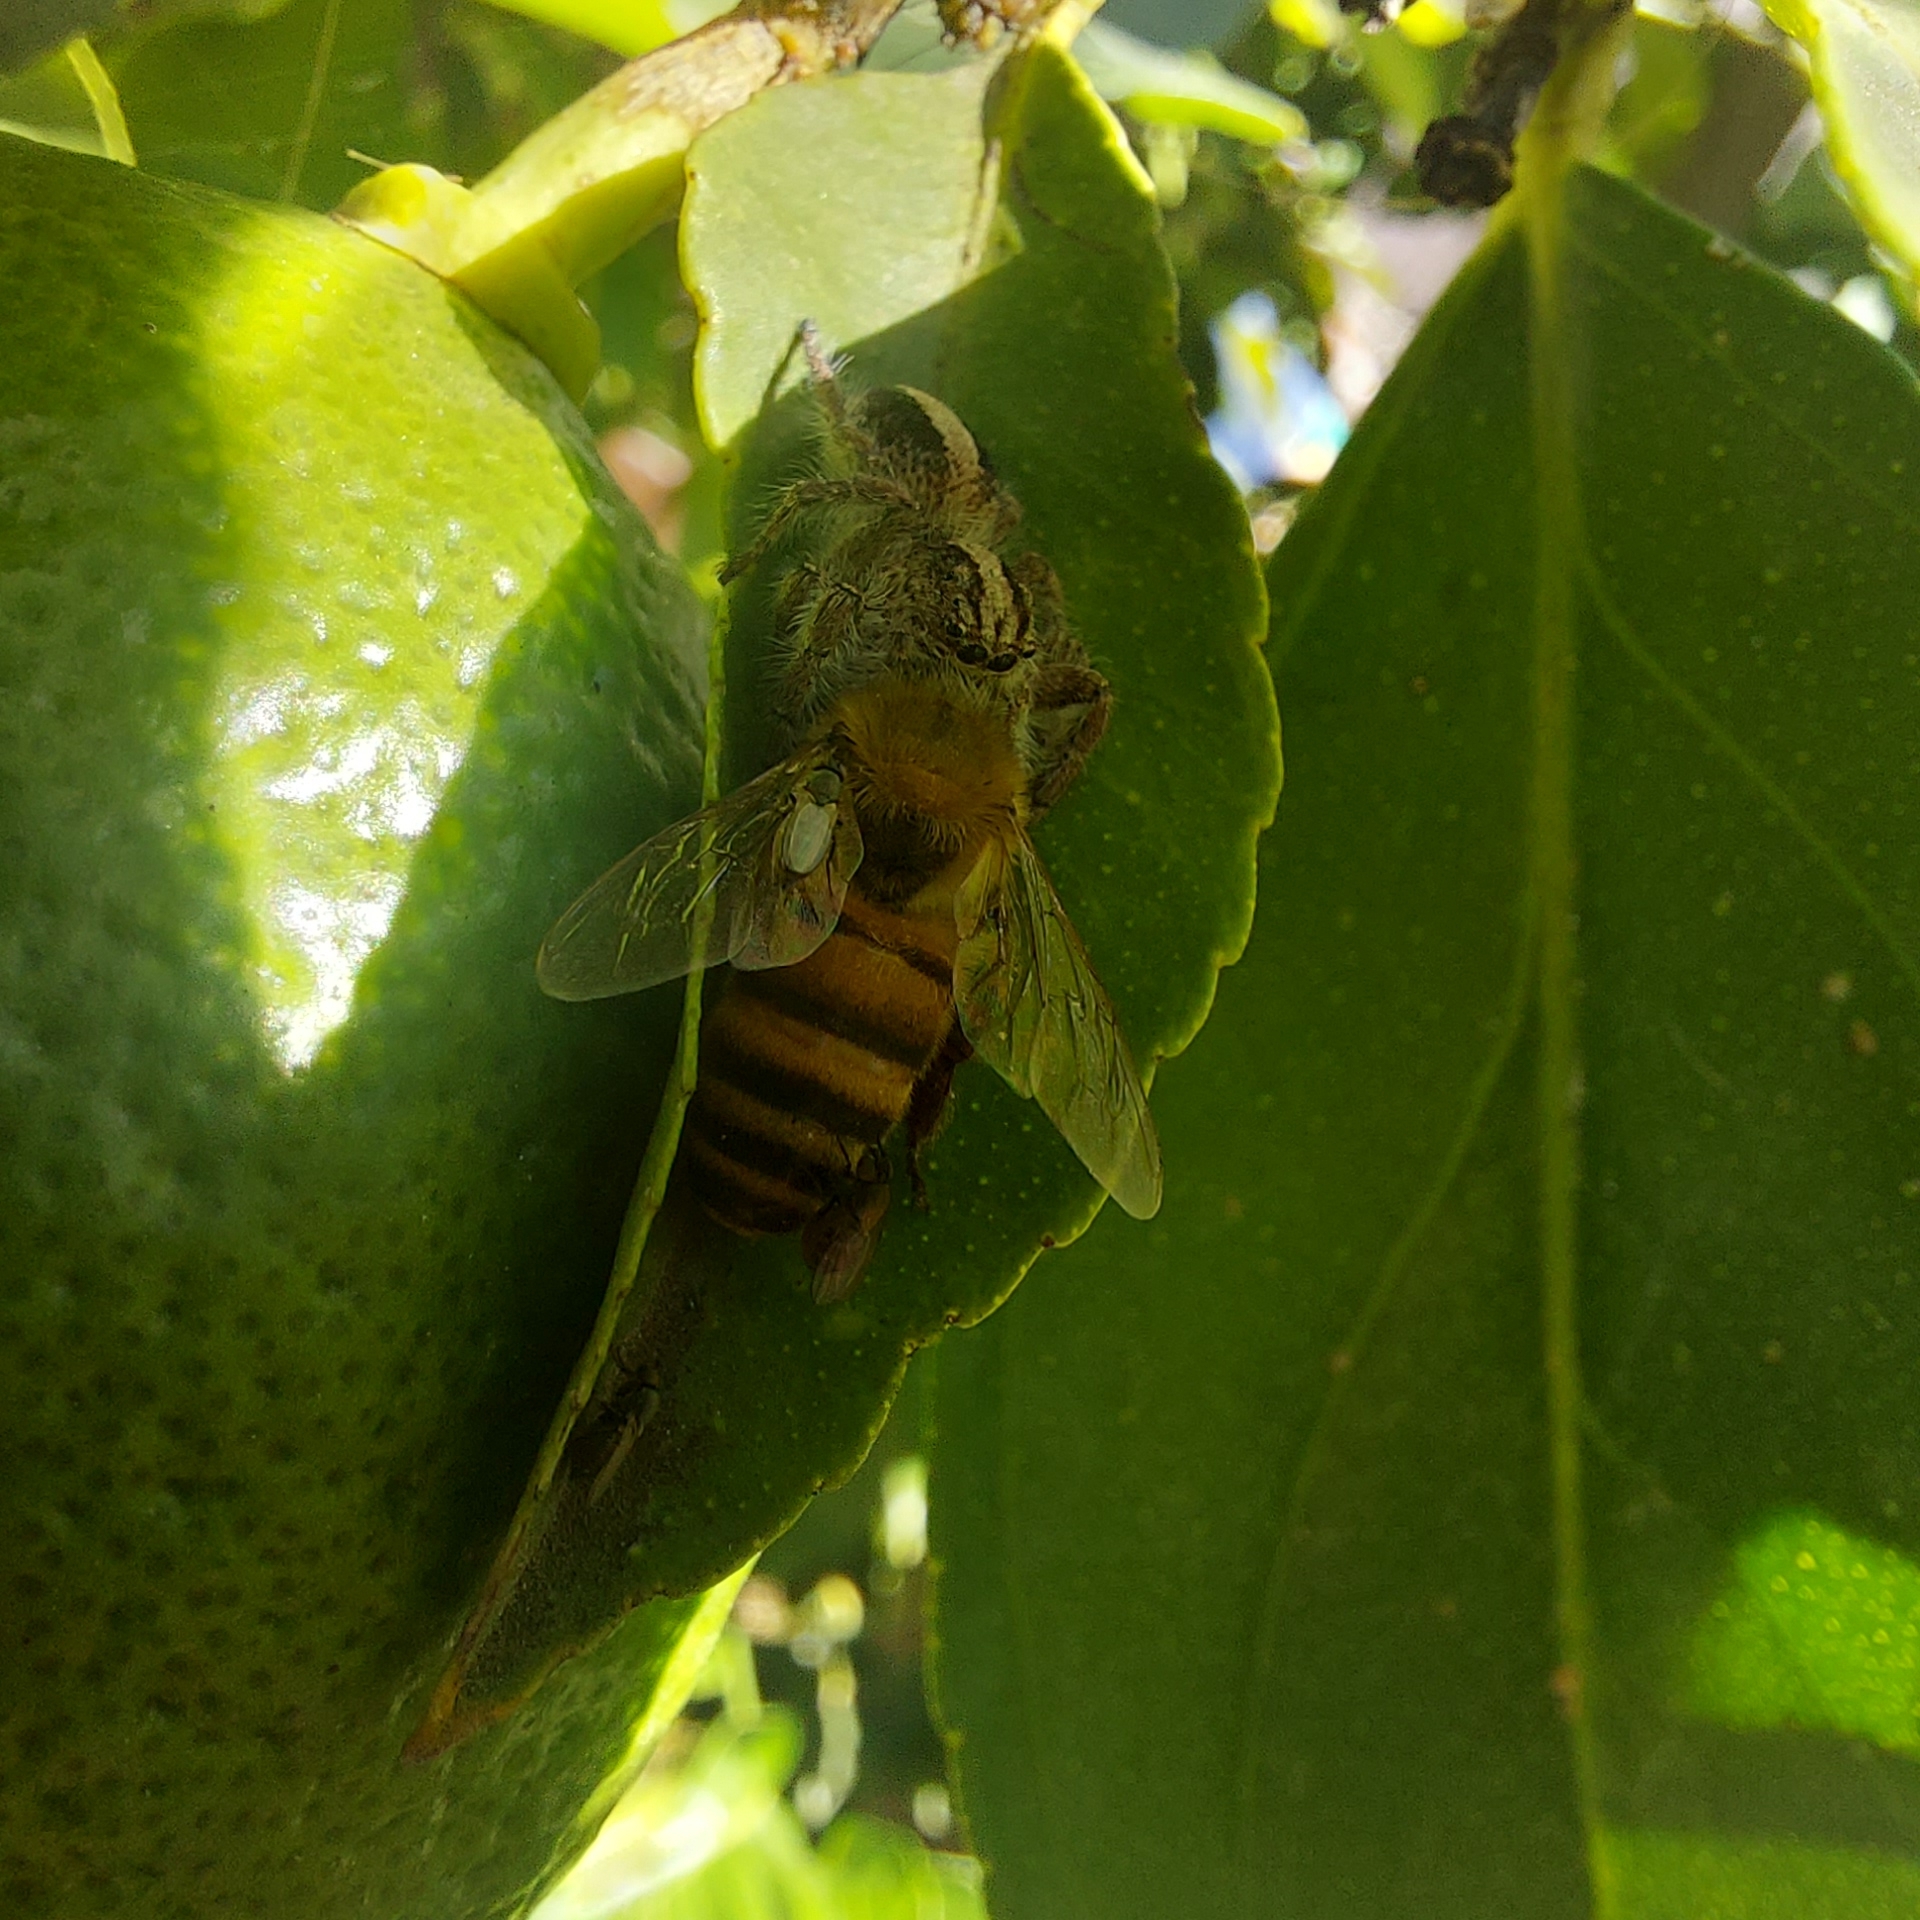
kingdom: Animalia
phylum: Arthropoda
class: Insecta
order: Hymenoptera
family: Apidae
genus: Apis
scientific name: Apis mellifera
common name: Honey bee
